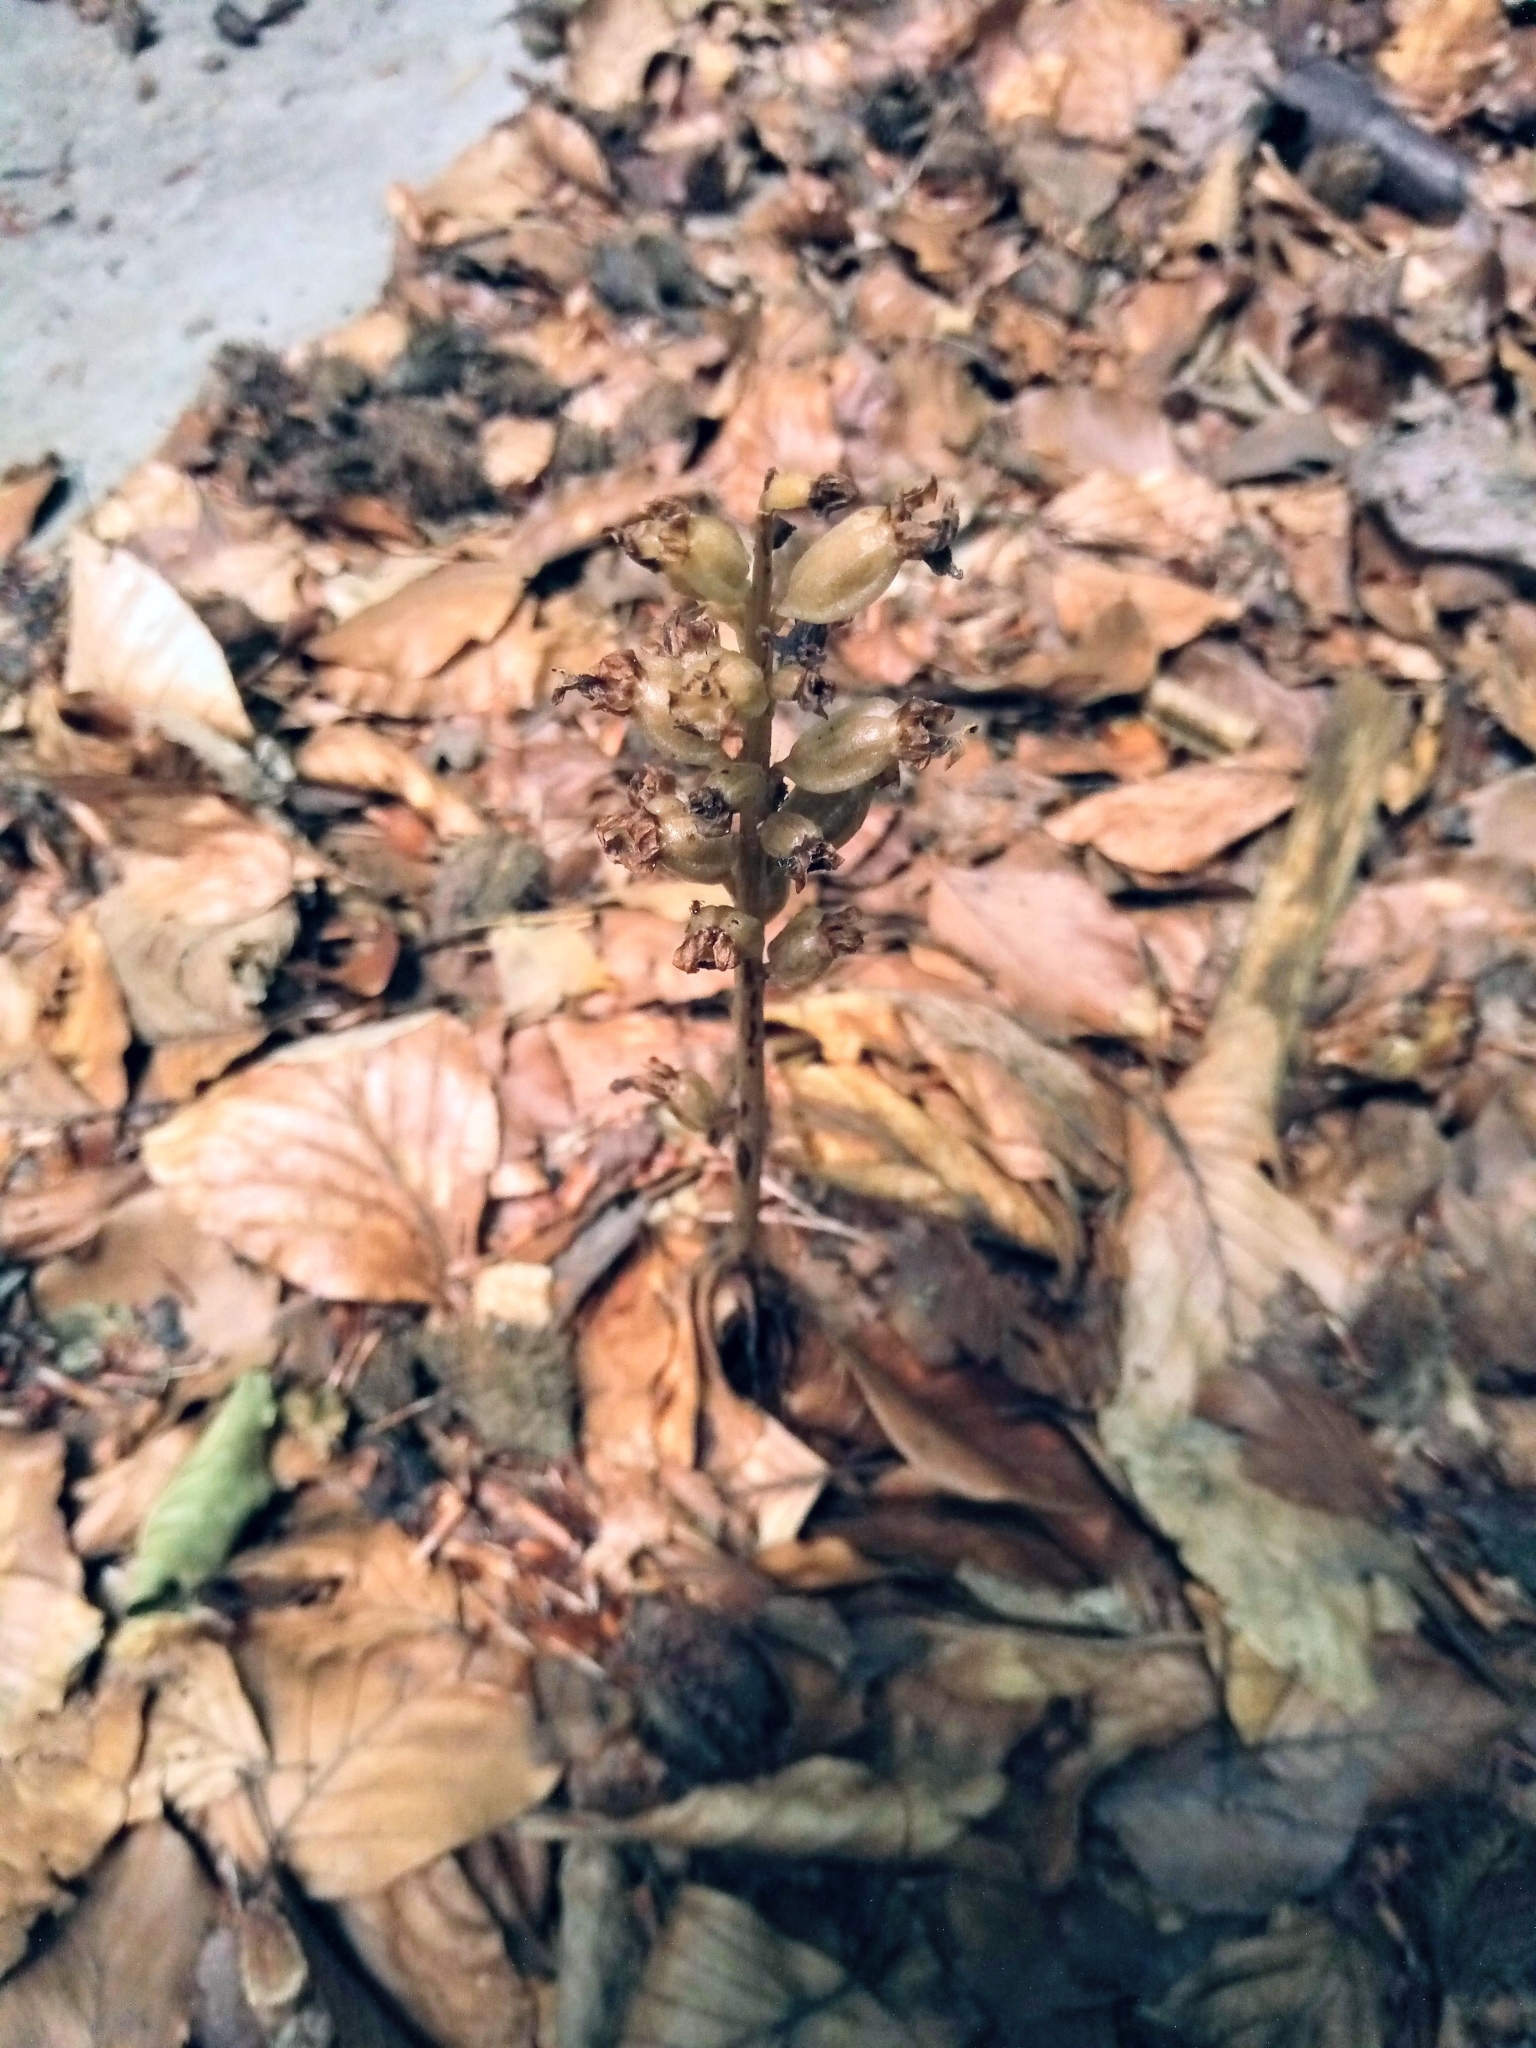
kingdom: Plantae
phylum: Tracheophyta
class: Liliopsida
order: Asparagales
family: Orchidaceae
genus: Neottia
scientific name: Neottia nidus-avis
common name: Bird's-nest orchid
